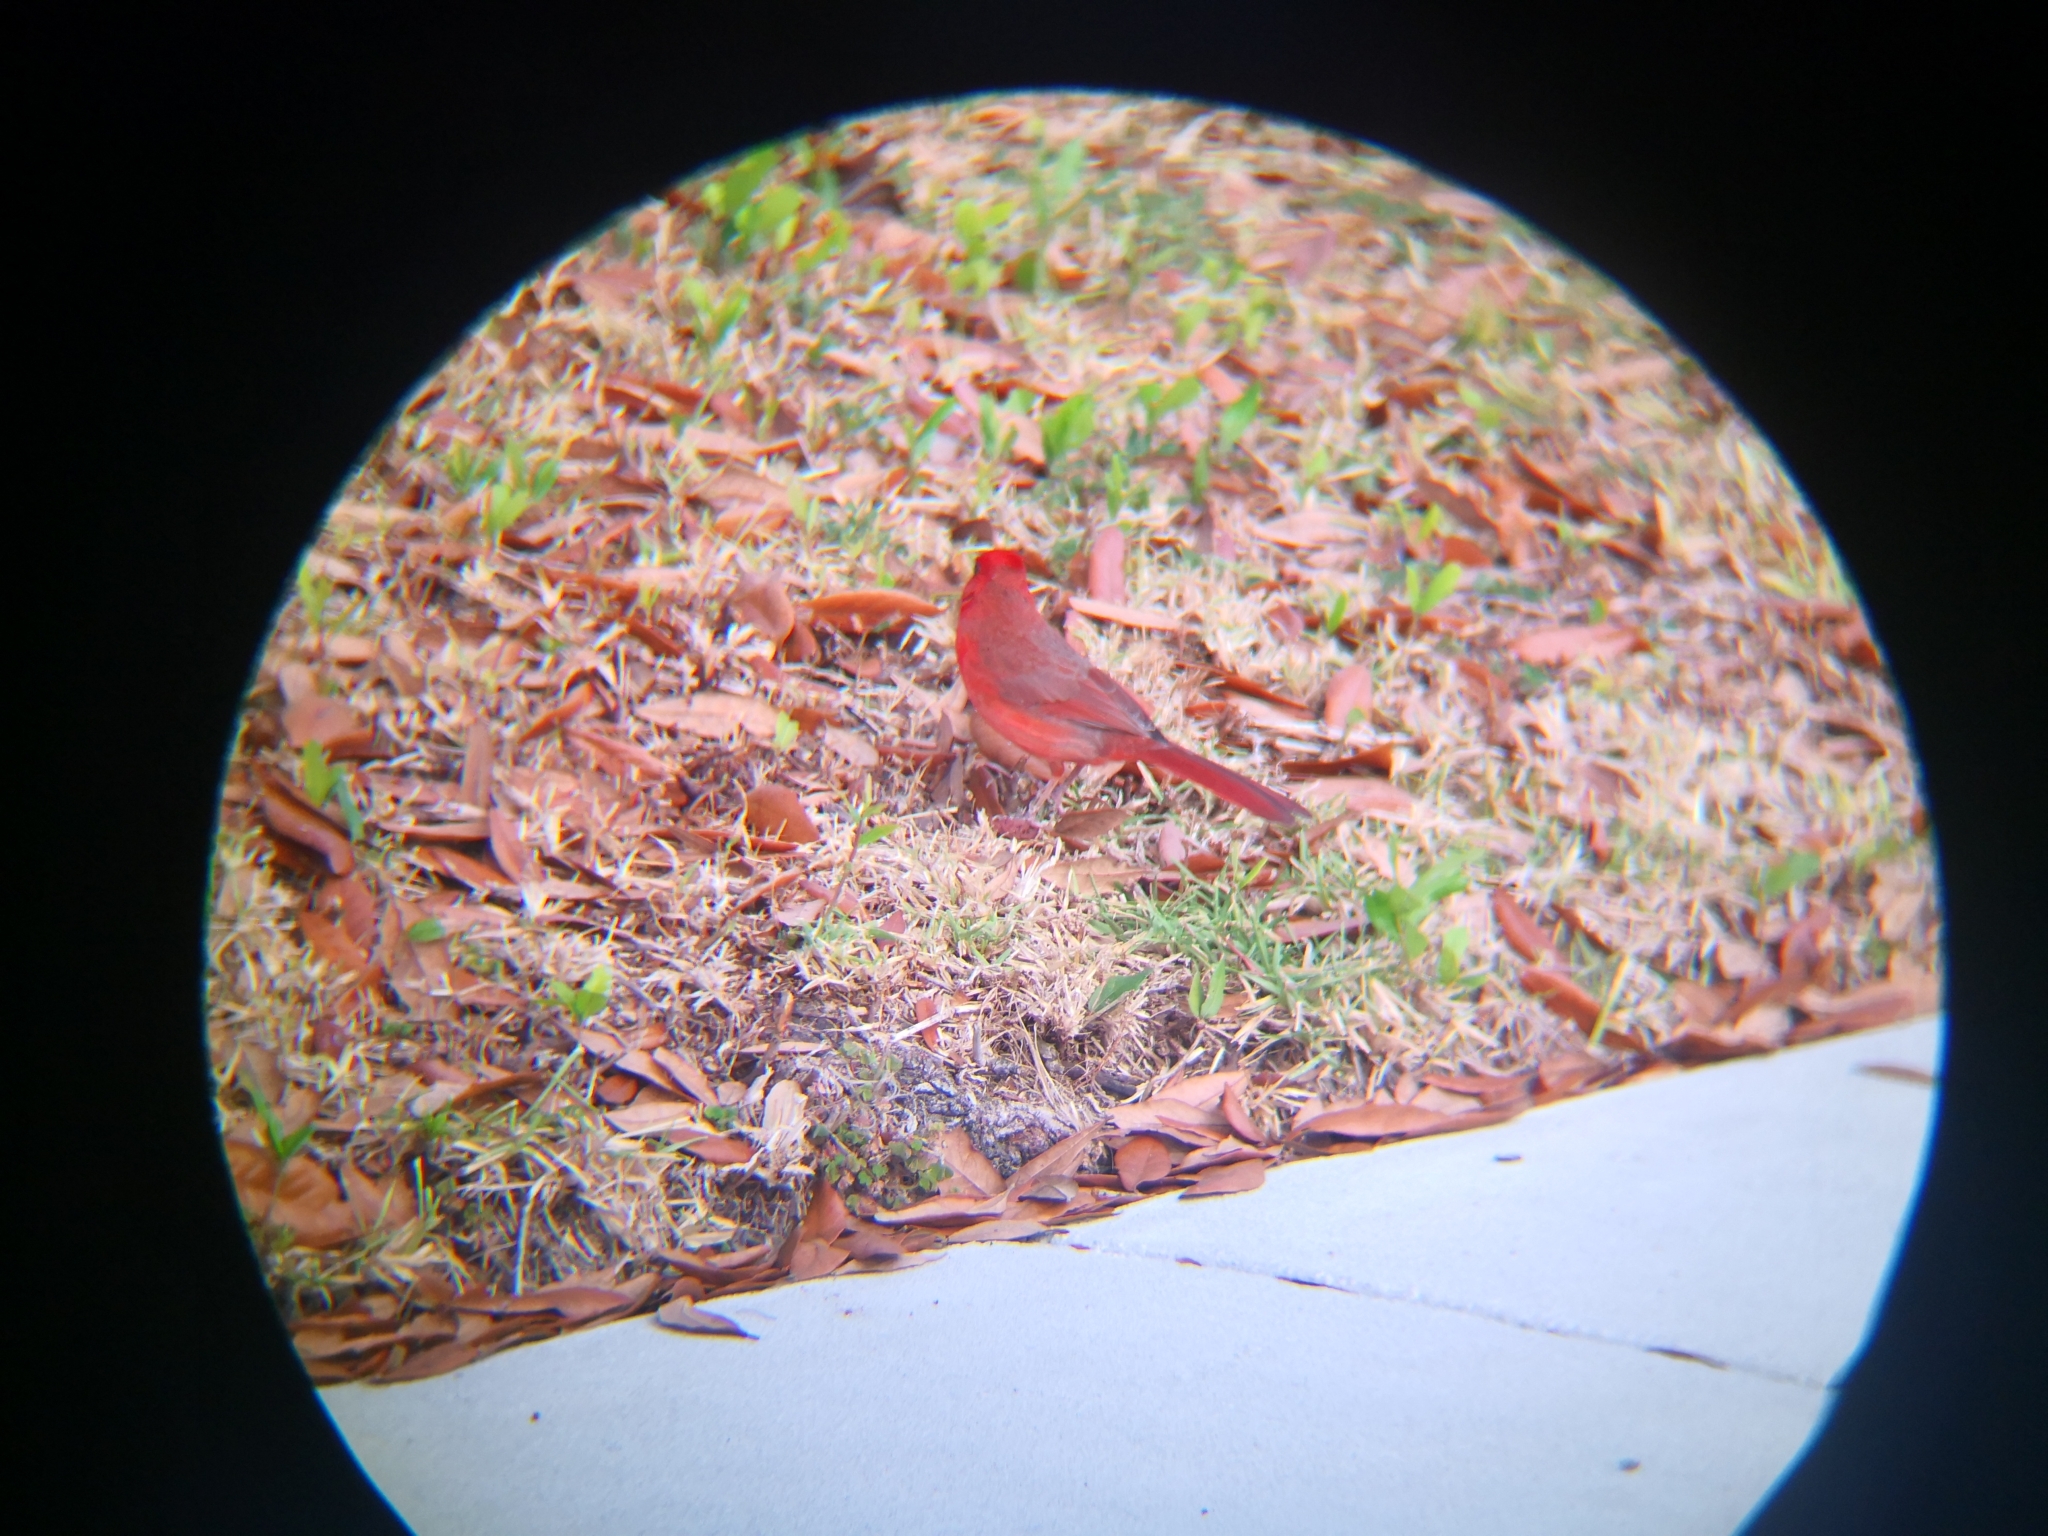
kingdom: Animalia
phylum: Chordata
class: Aves
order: Passeriformes
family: Cardinalidae
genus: Cardinalis
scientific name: Cardinalis cardinalis
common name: Northern cardinal
